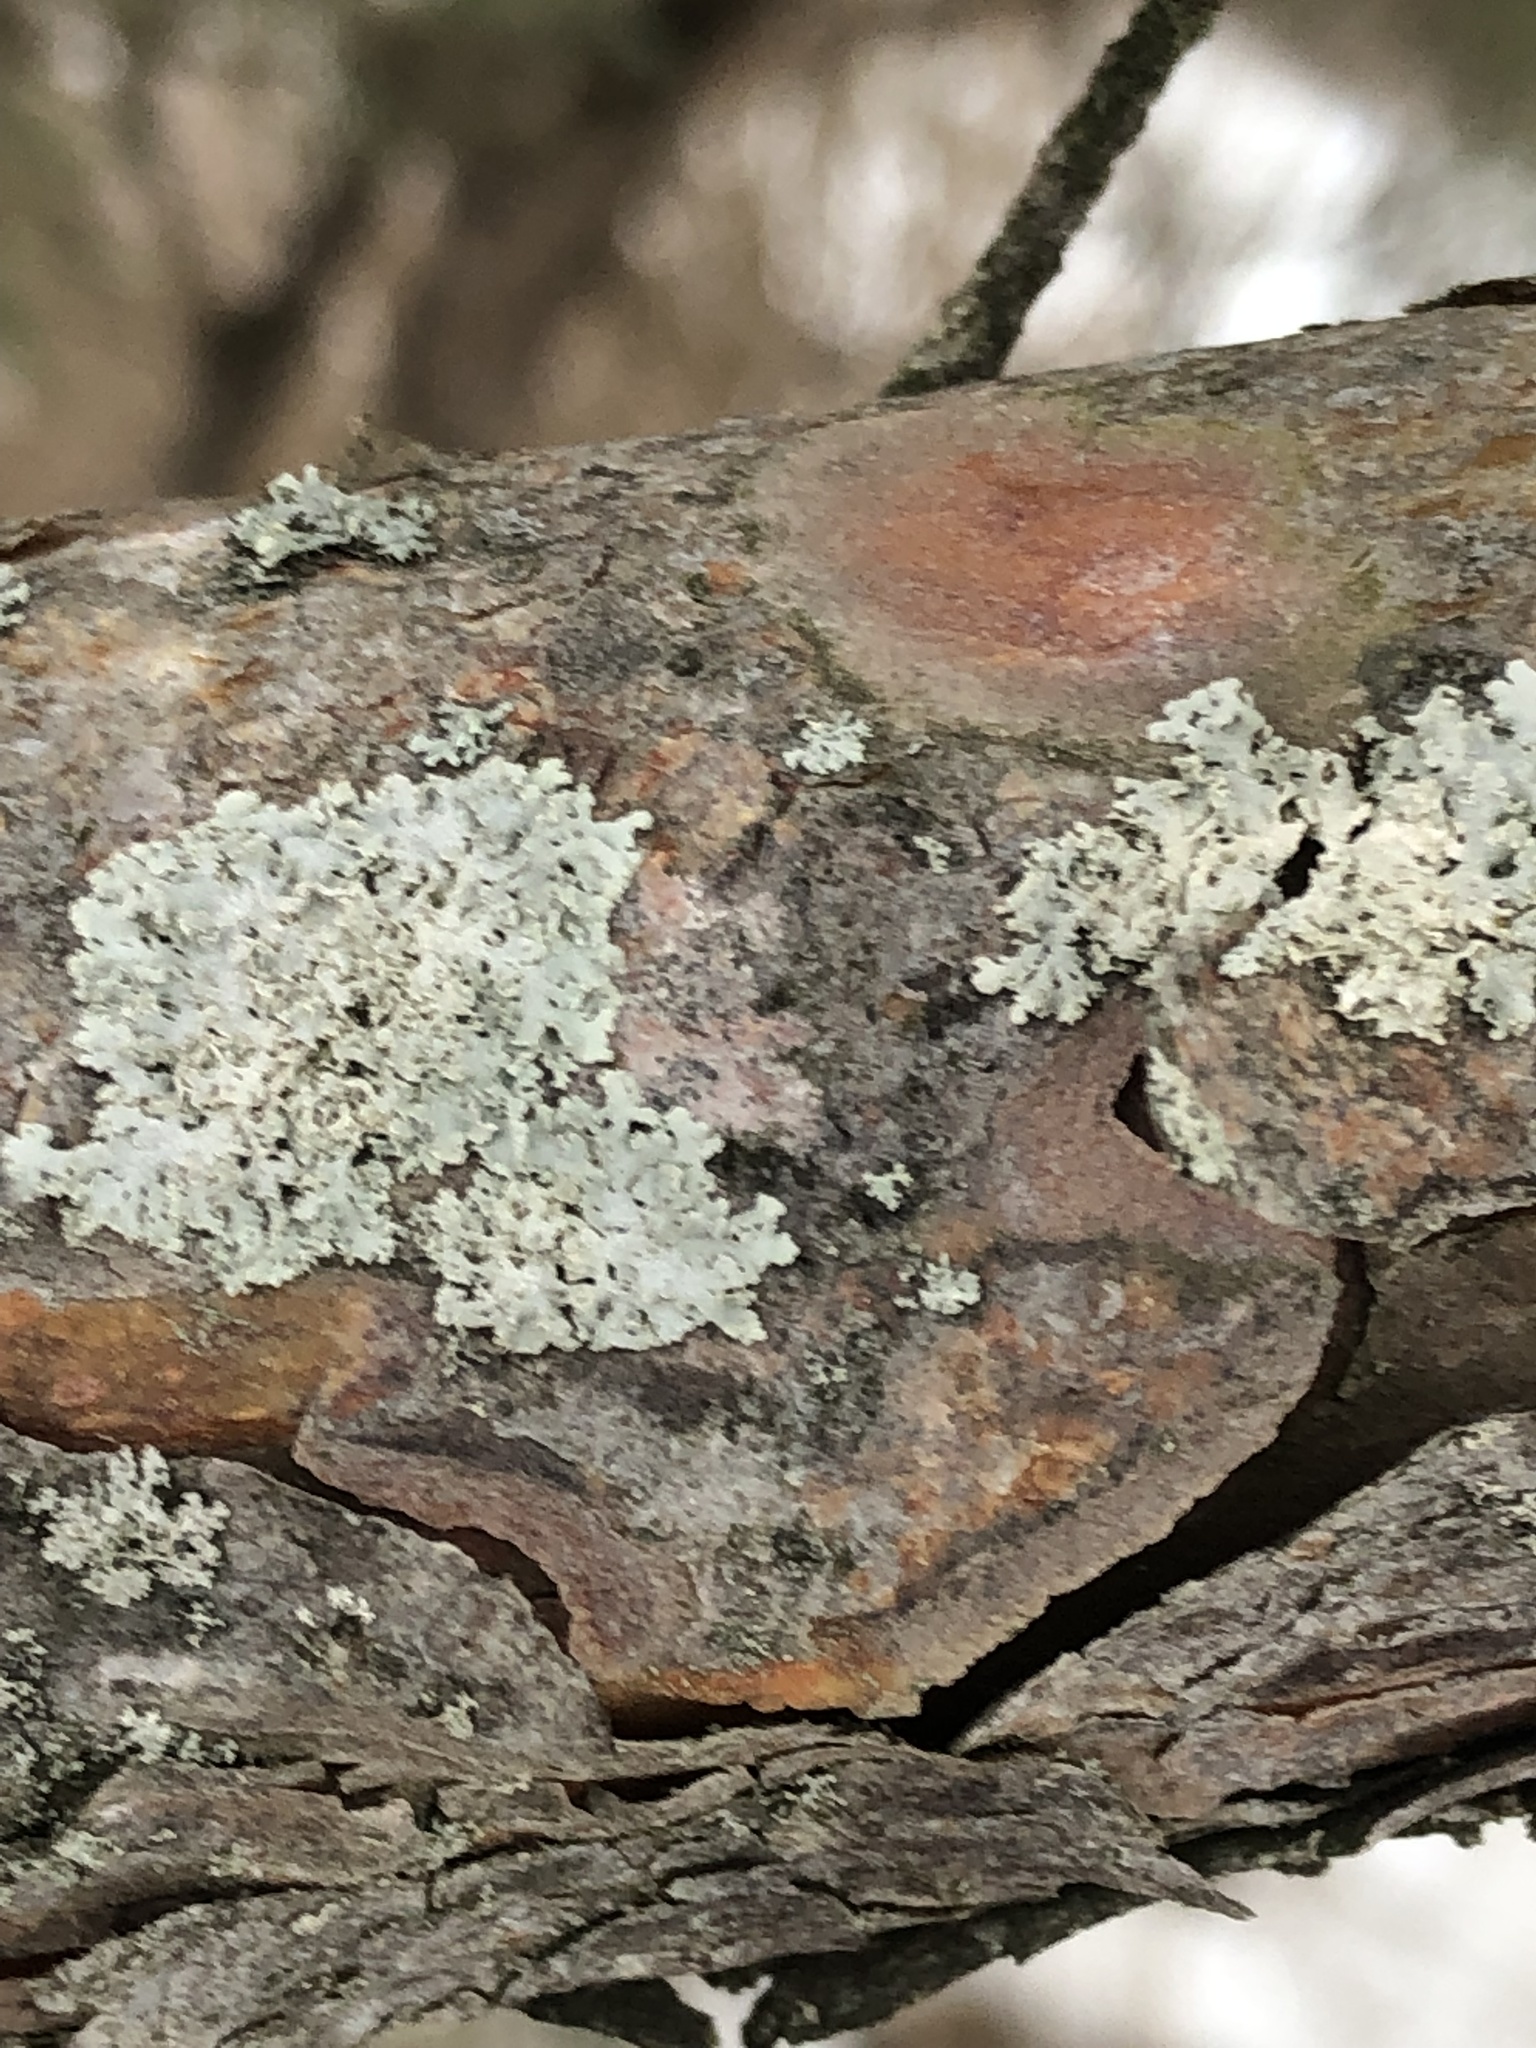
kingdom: Fungi
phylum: Ascomycota
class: Lecanoromycetes
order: Caliciales
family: Physciaceae
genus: Physcia
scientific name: Physcia millegrana
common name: Rosette lichen
